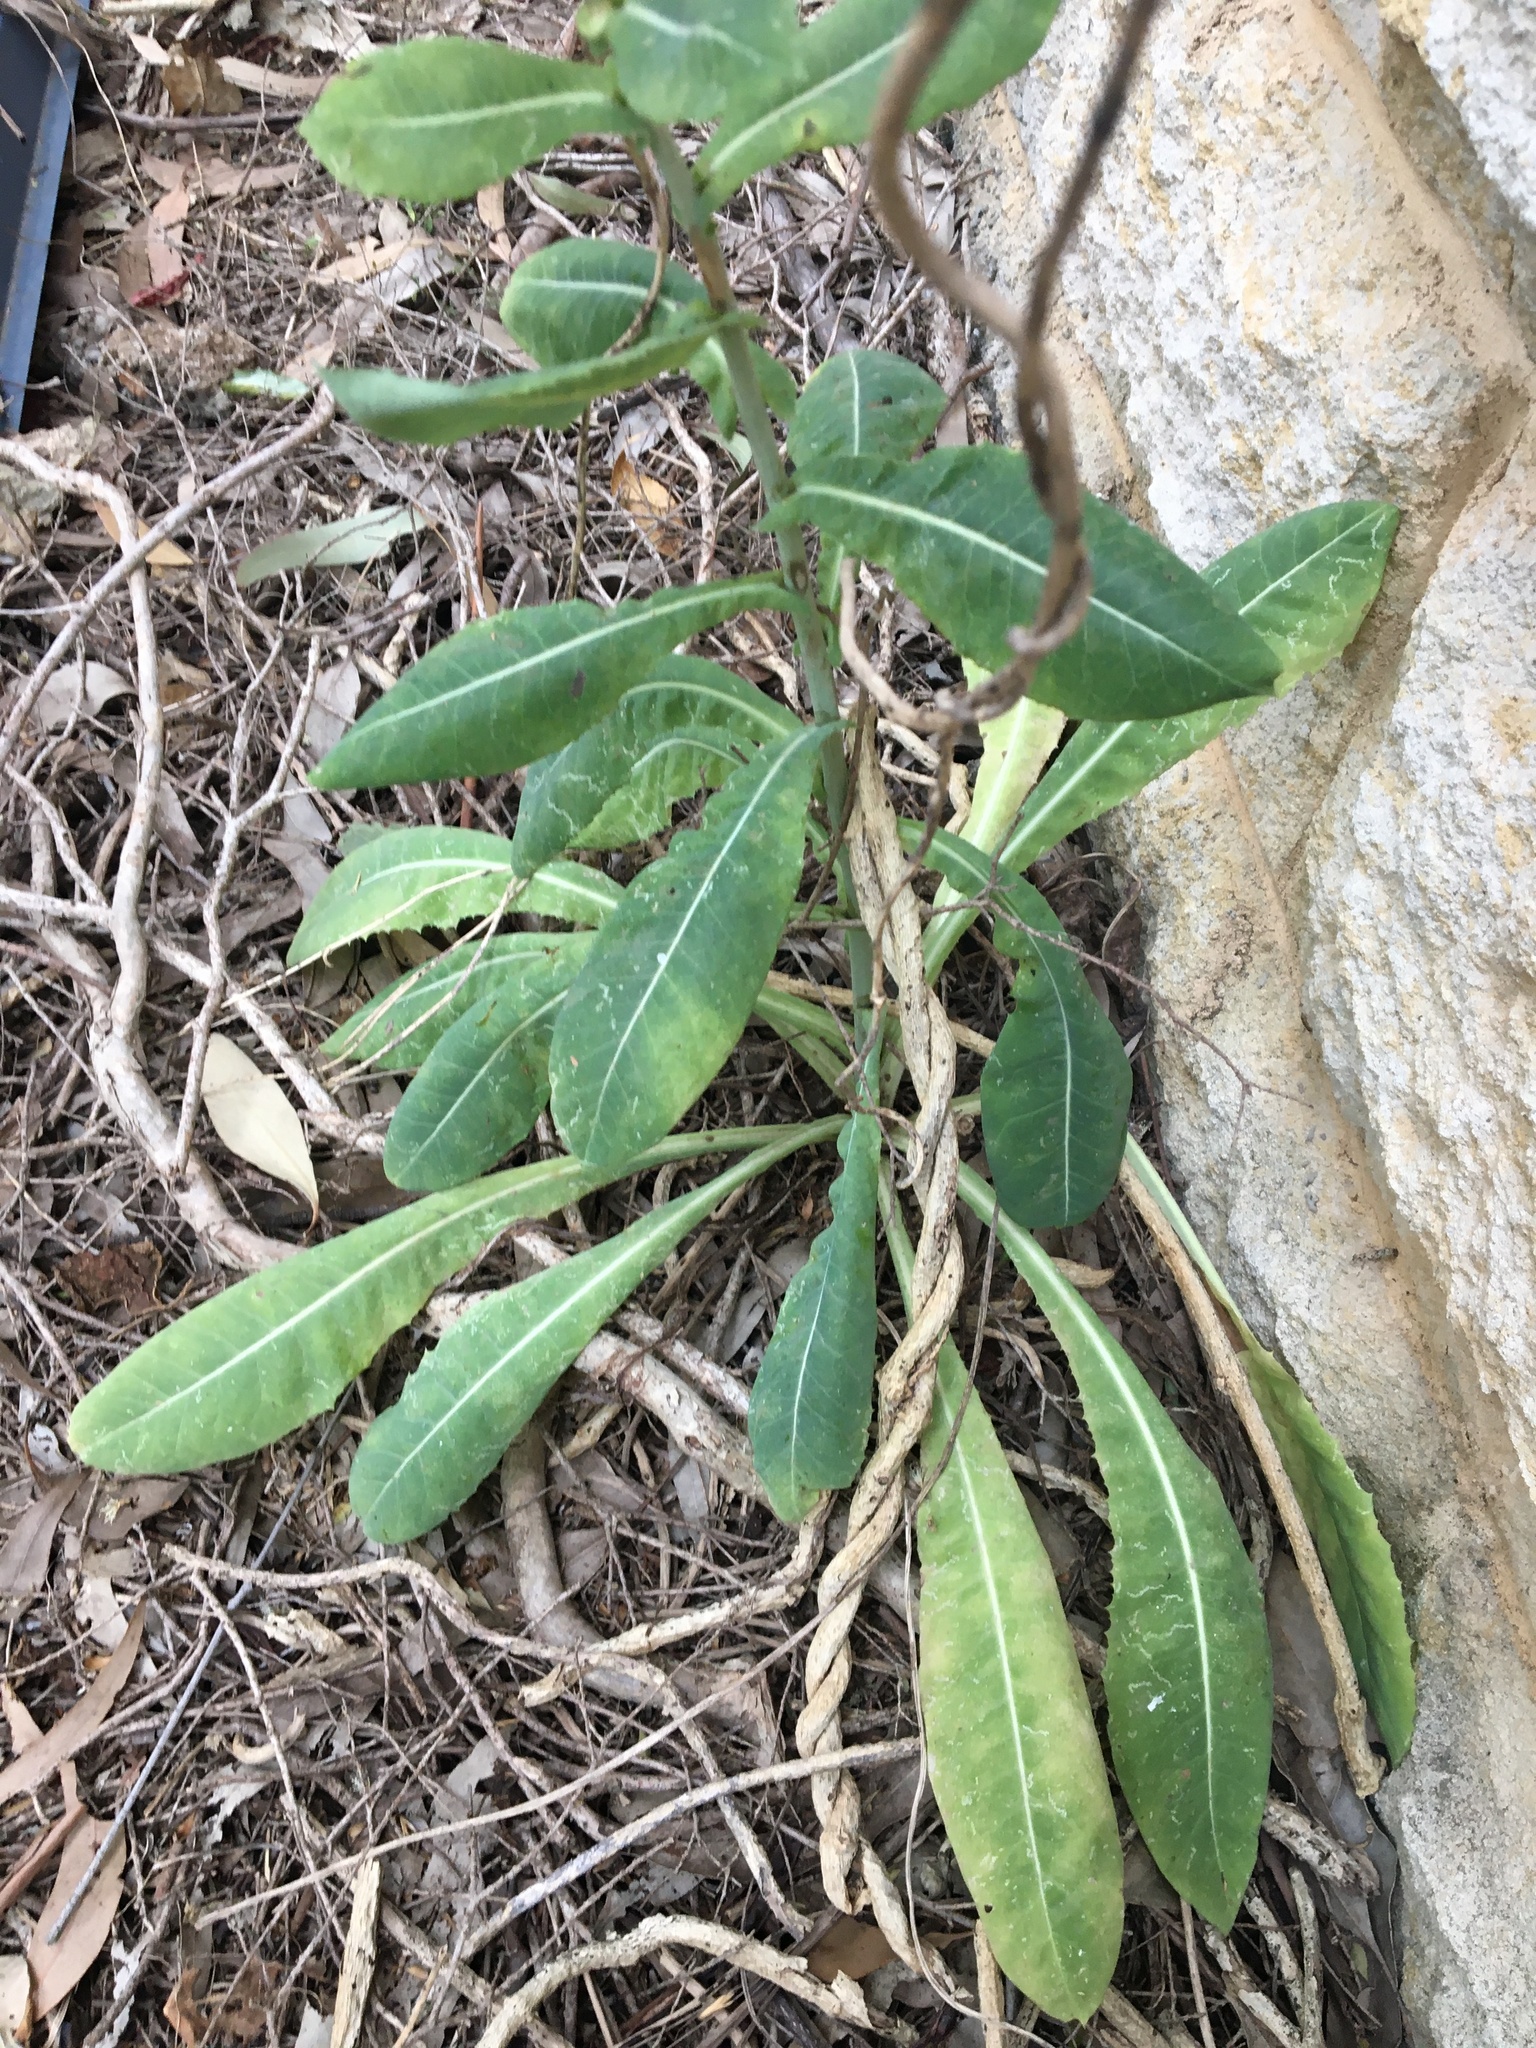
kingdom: Plantae
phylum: Tracheophyta
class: Magnoliopsida
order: Asterales
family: Asteraceae
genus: Lactuca
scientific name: Lactuca virosa
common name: Great lettuce
